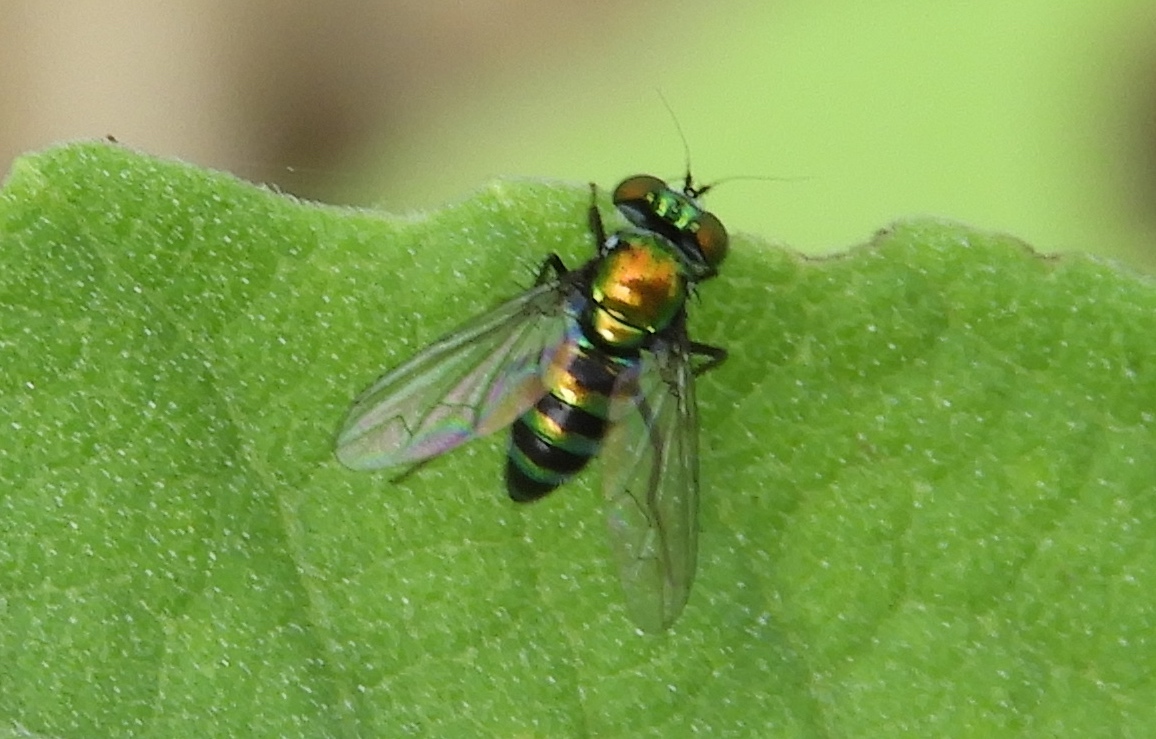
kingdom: Animalia
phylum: Arthropoda
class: Insecta
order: Diptera
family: Dolichopodidae
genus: Condylostylus
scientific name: Condylostylus
